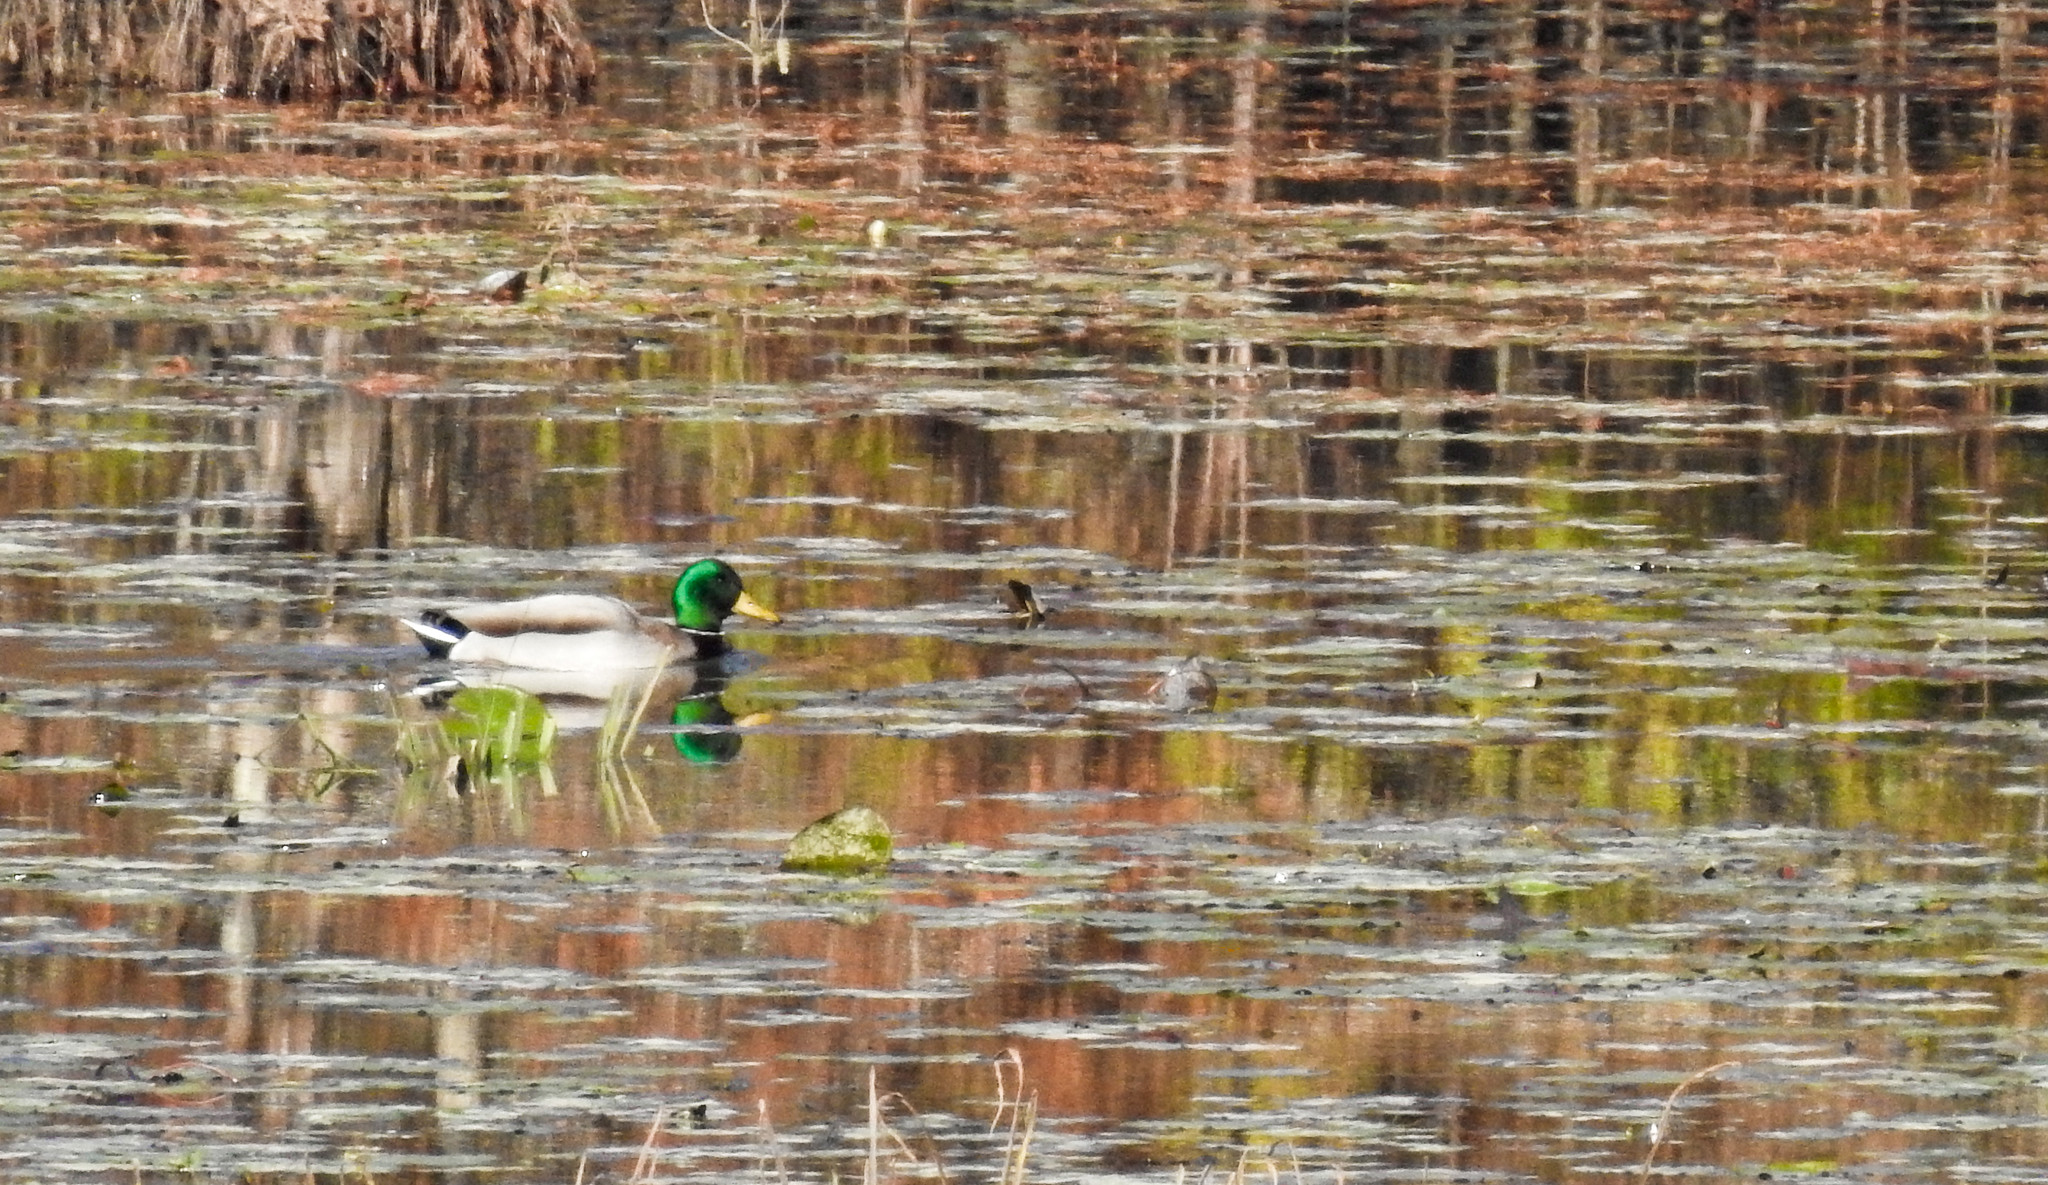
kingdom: Animalia
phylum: Chordata
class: Aves
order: Anseriformes
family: Anatidae
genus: Anas
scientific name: Anas platyrhynchos
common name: Mallard
